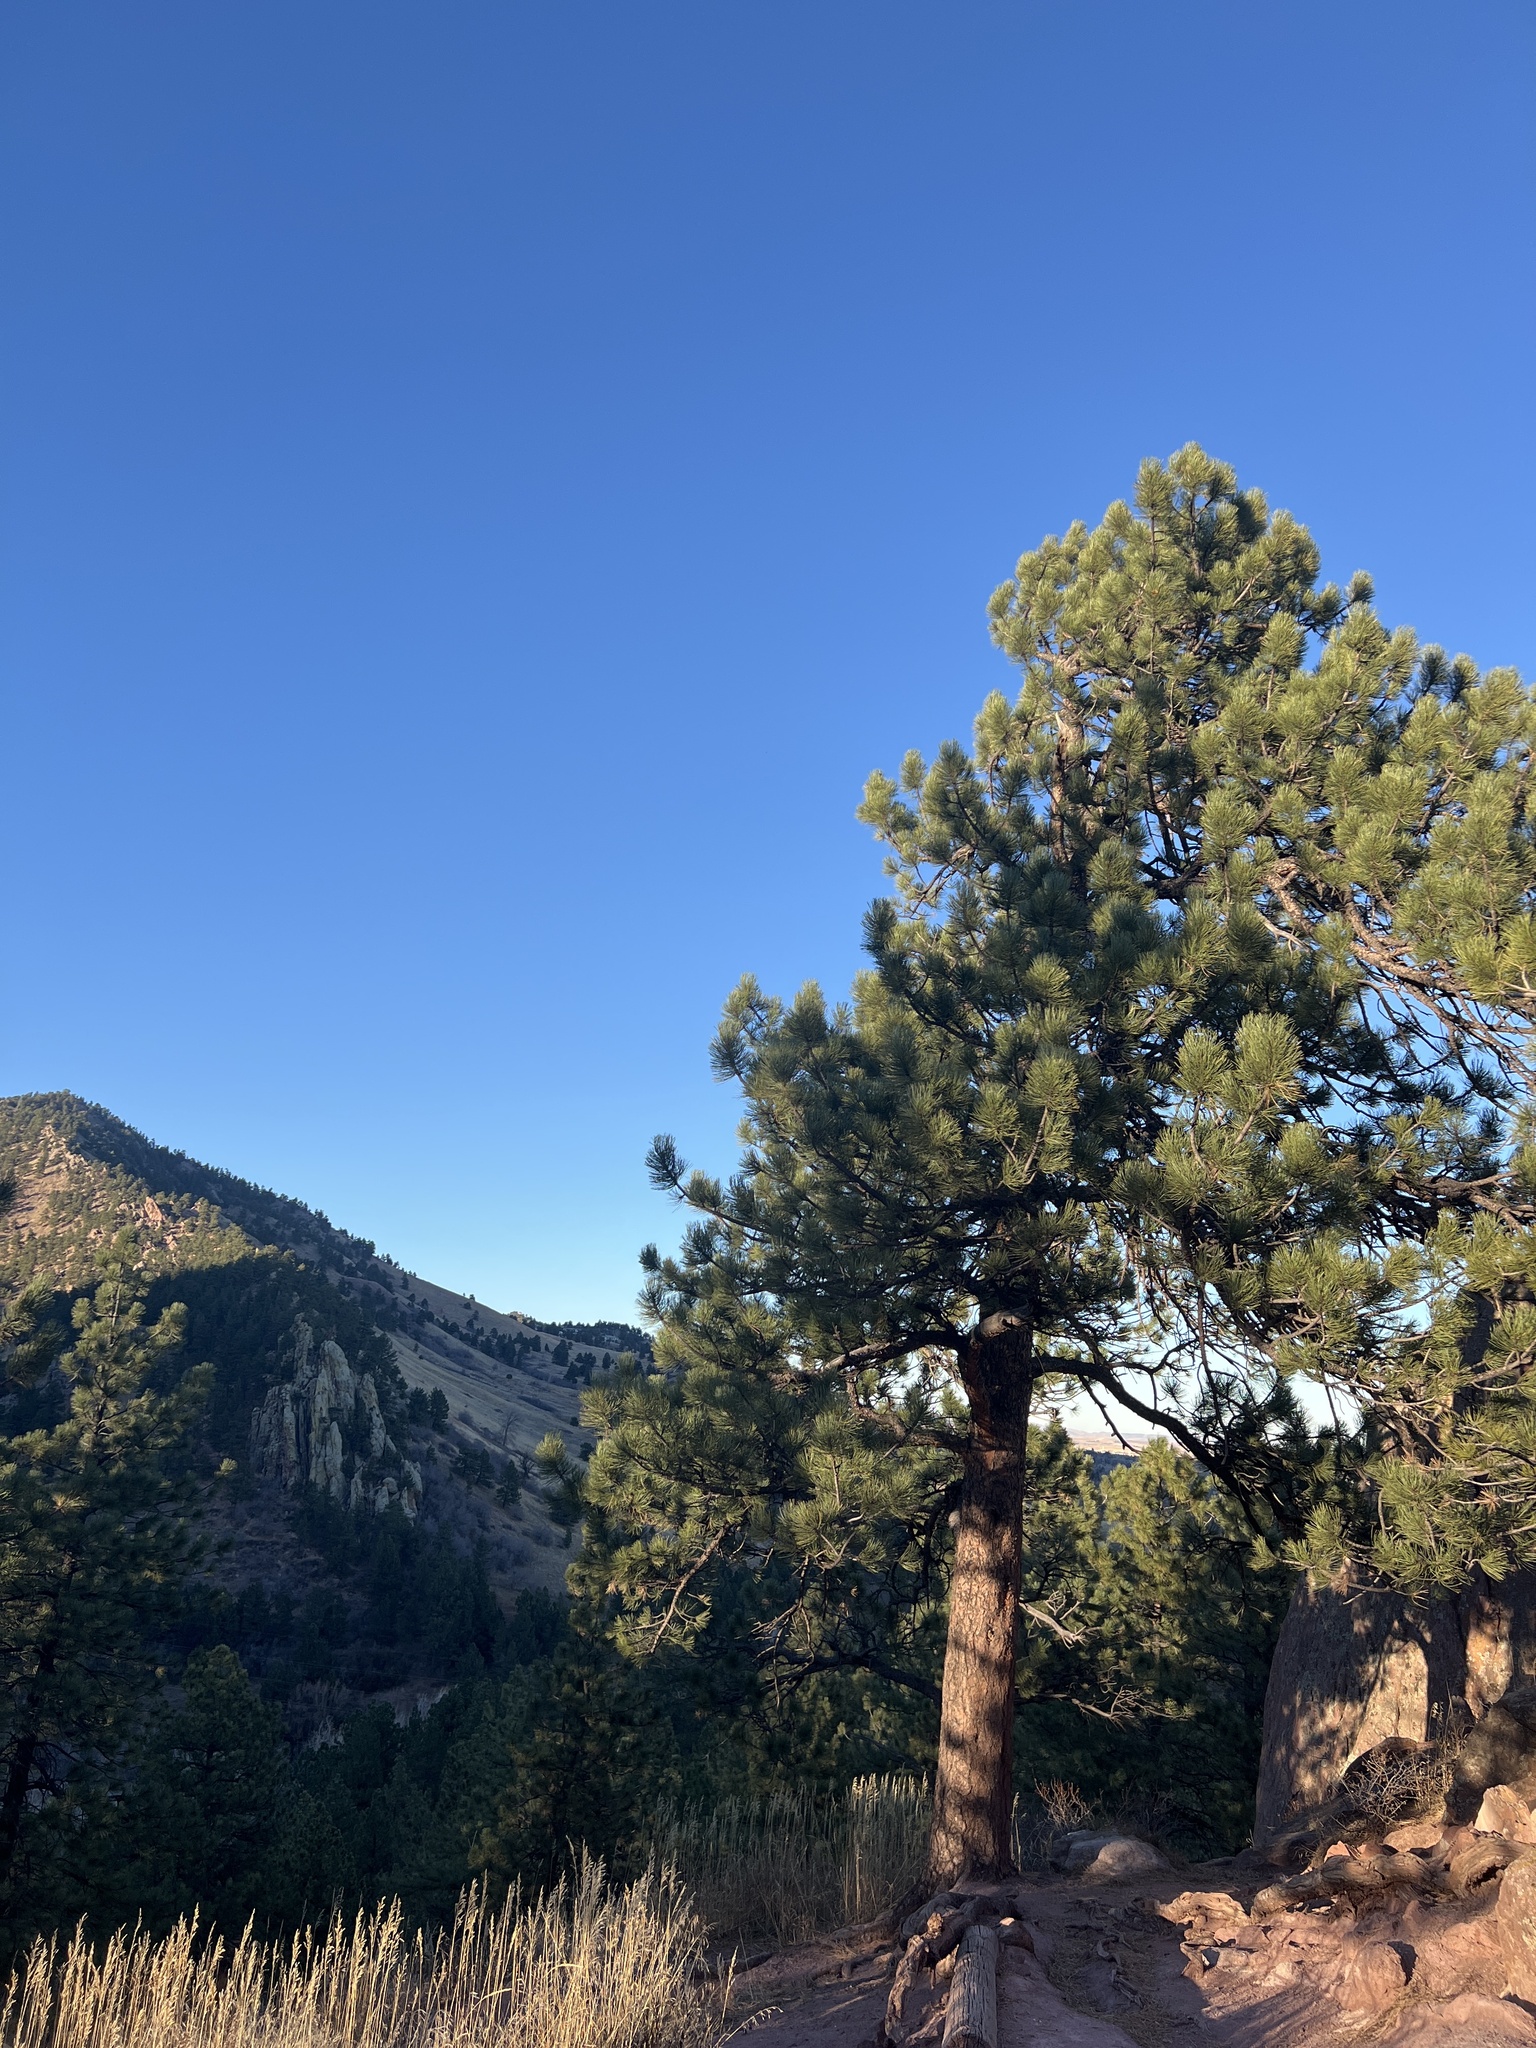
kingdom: Plantae
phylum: Tracheophyta
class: Pinopsida
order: Pinales
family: Pinaceae
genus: Pinus
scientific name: Pinus ponderosa
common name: Western yellow-pine
